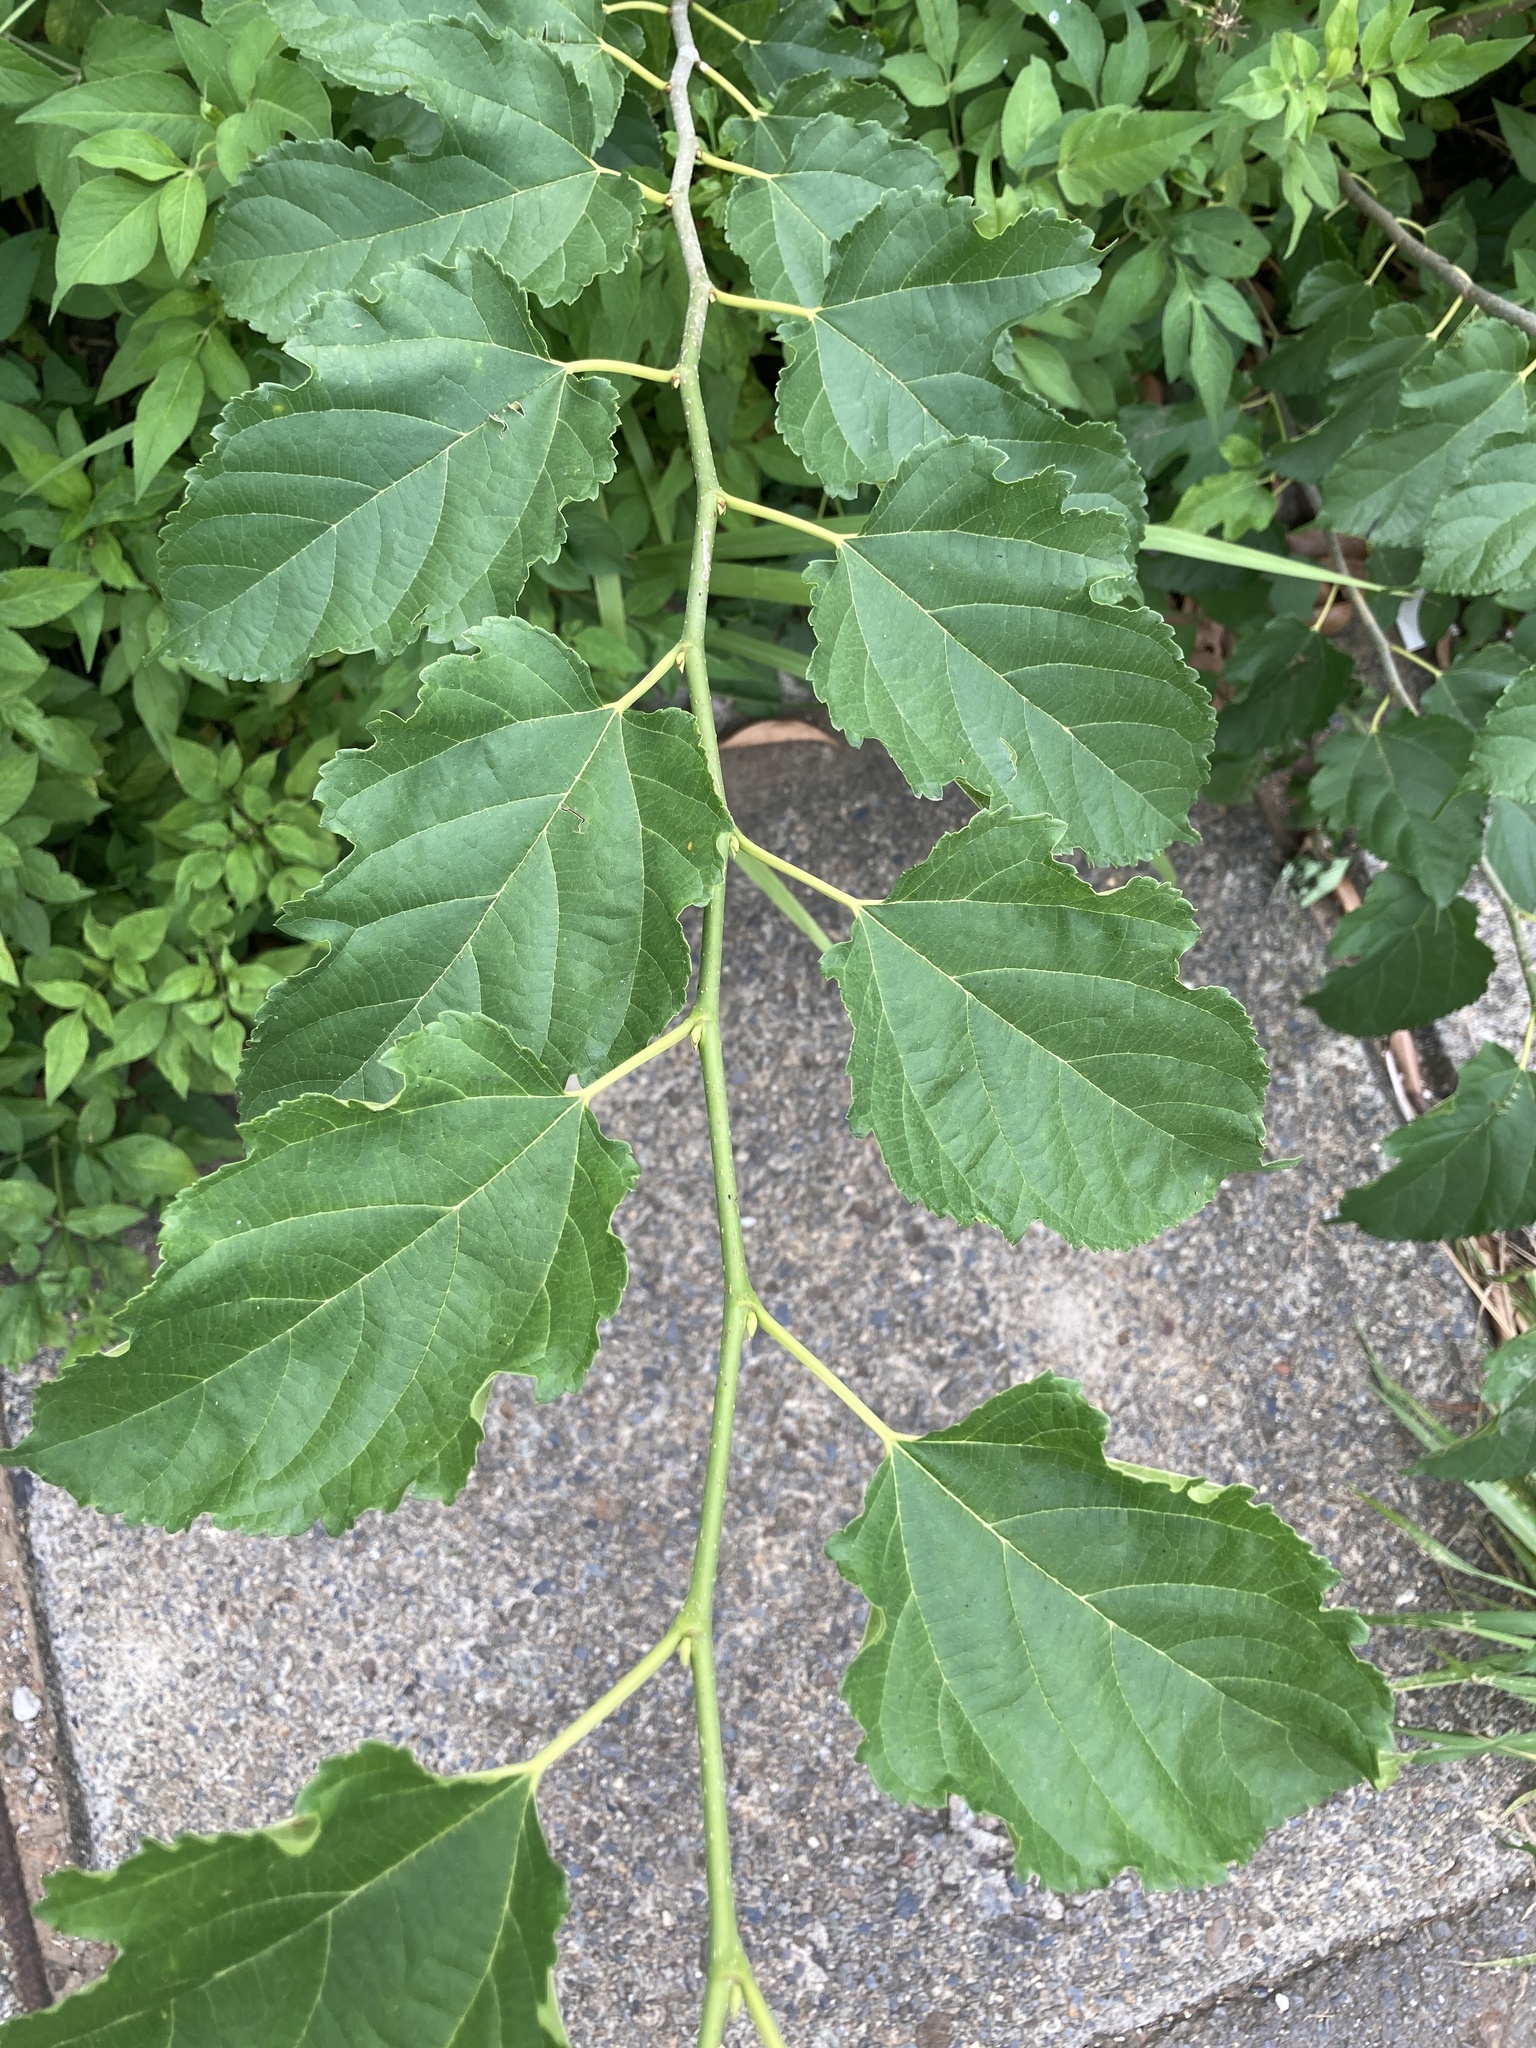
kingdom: Plantae
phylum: Tracheophyta
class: Magnoliopsida
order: Rosales
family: Moraceae
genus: Morus
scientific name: Morus indica
